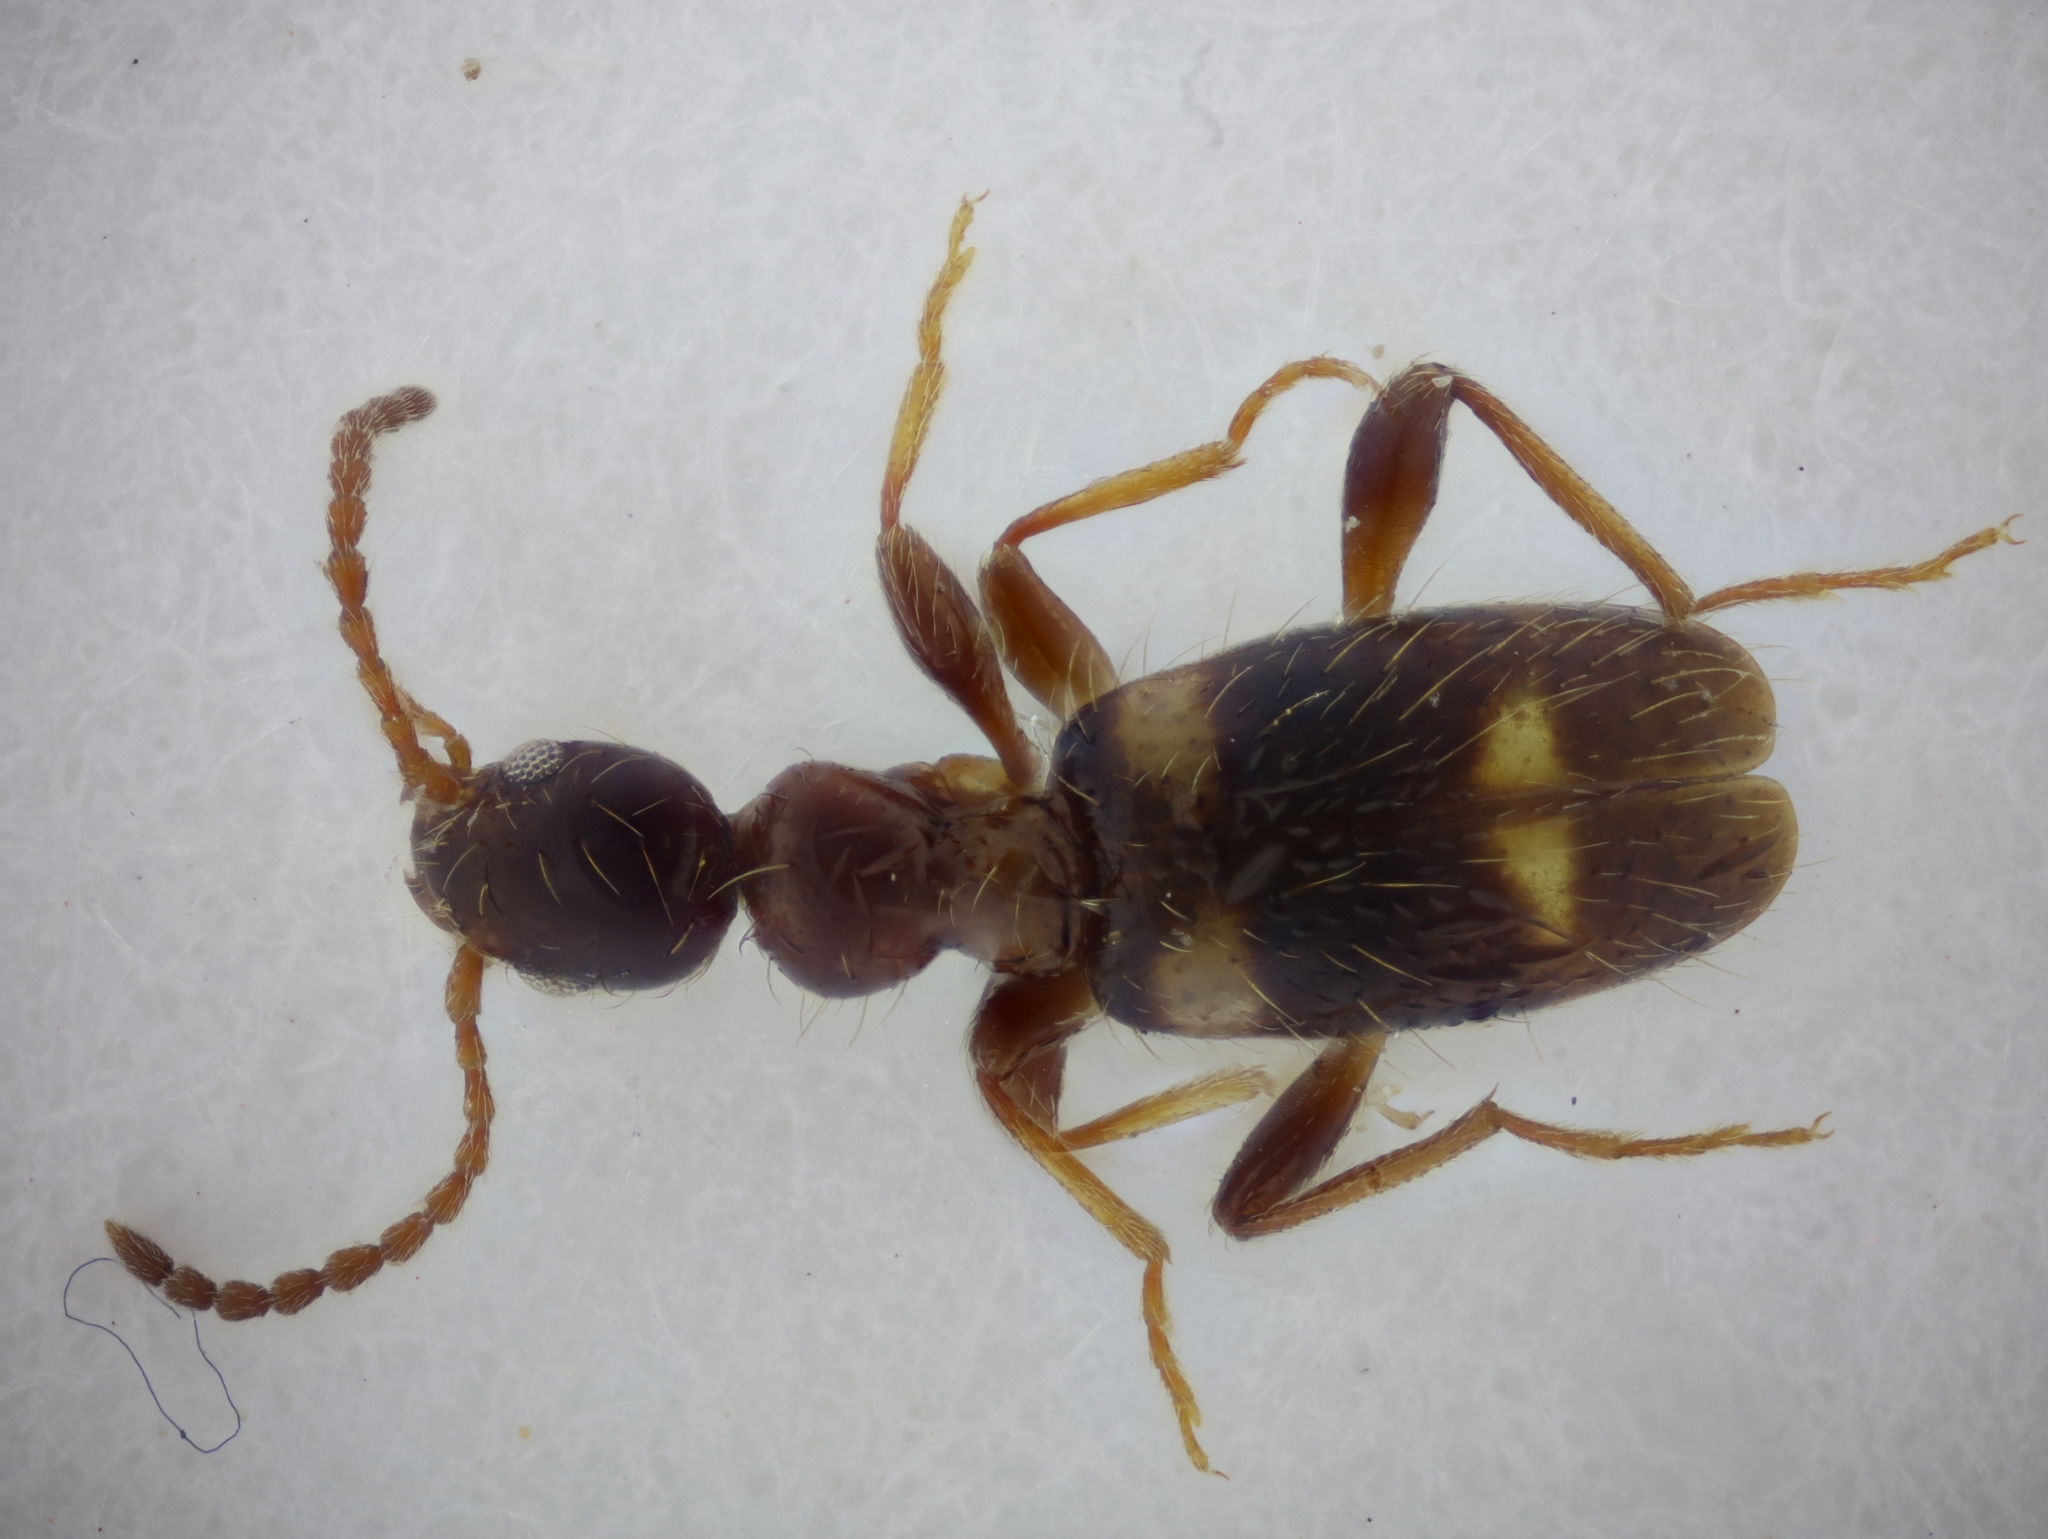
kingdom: Animalia
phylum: Arthropoda
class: Insecta
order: Coleoptera
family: Anthicidae
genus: Leptaleus
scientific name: Leptaleus rodriguesi
